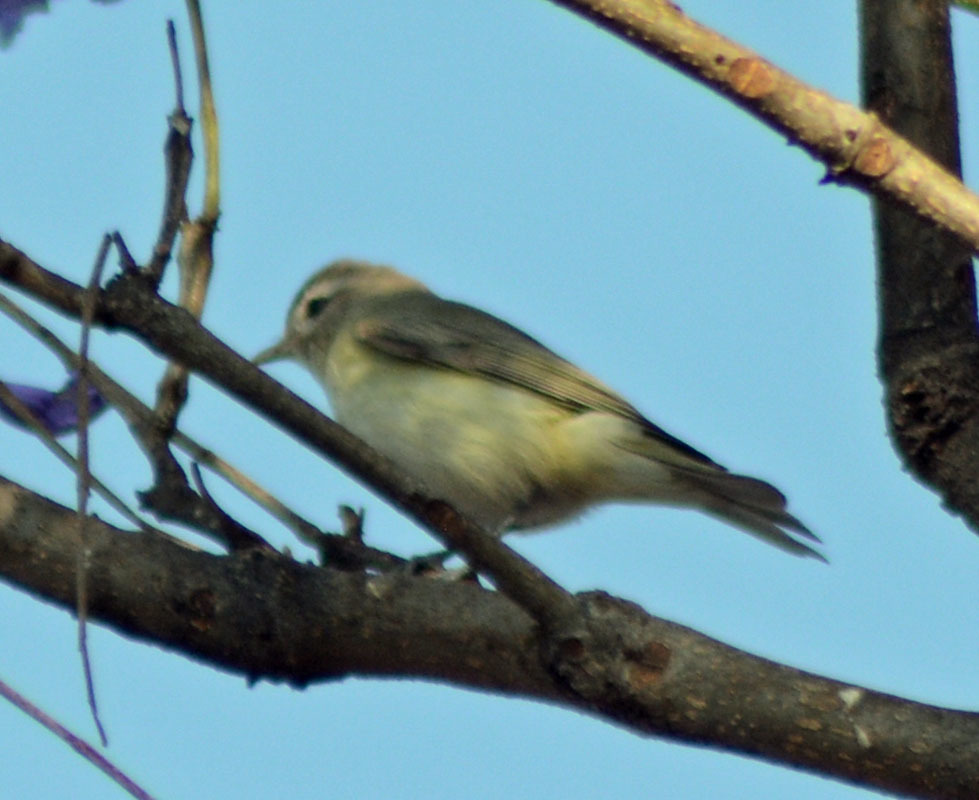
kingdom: Animalia
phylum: Chordata
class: Aves
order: Passeriformes
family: Vireonidae
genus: Vireo
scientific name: Vireo gilvus
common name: Warbling vireo
